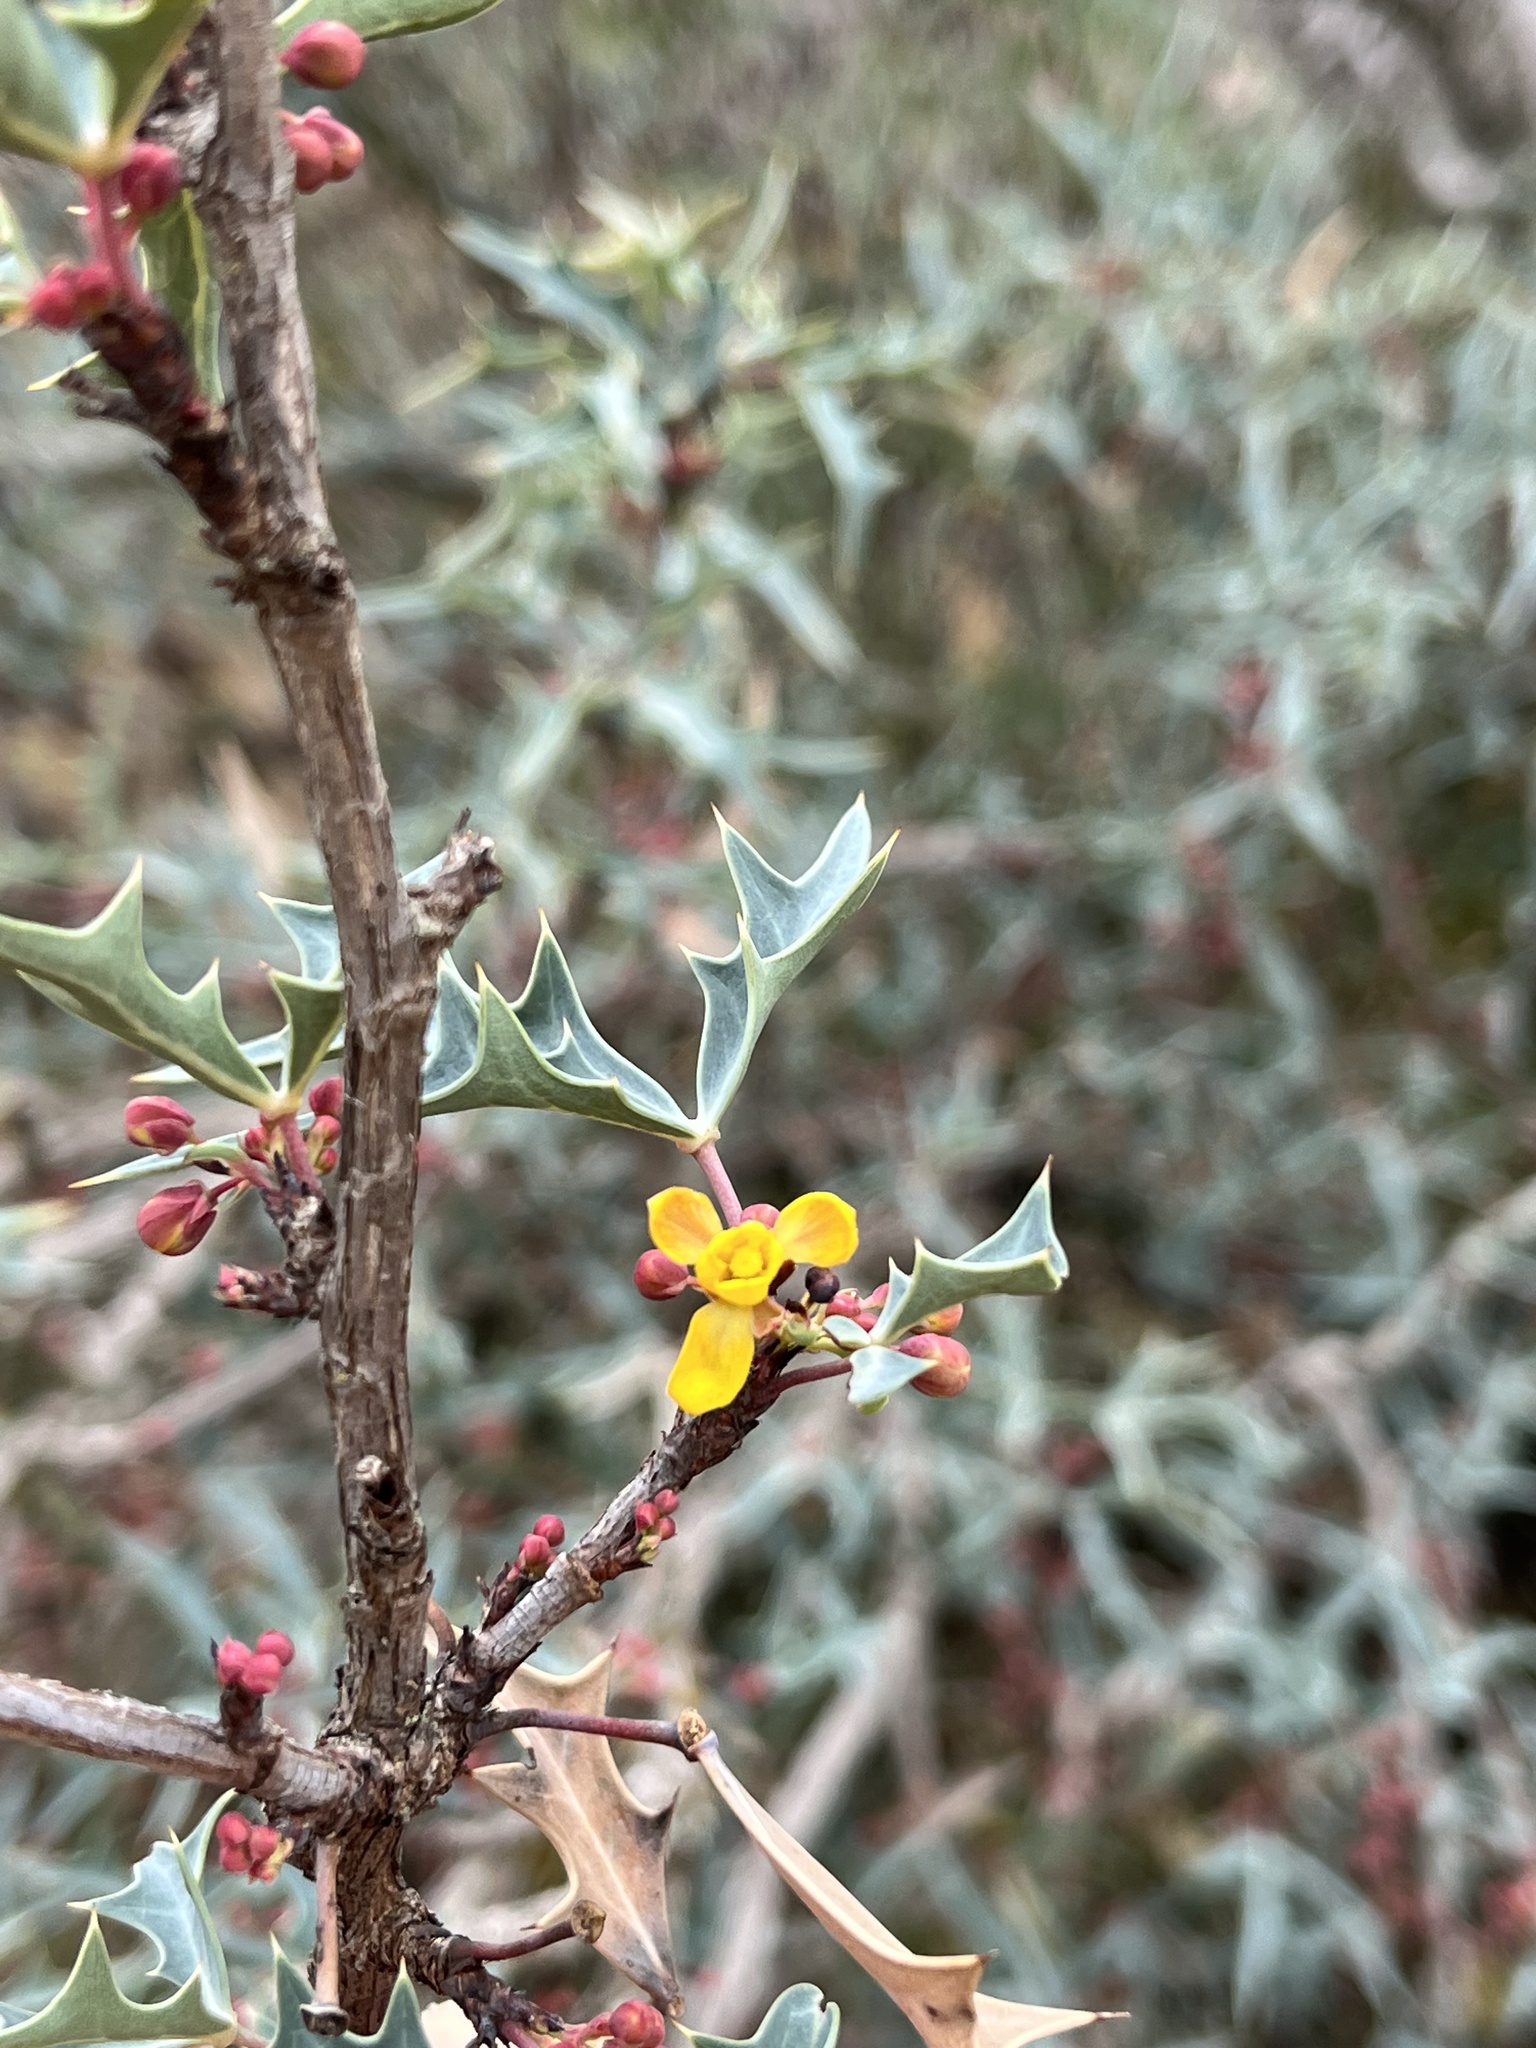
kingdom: Plantae
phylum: Tracheophyta
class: Magnoliopsida
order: Ranunculales
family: Berberidaceae
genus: Alloberberis
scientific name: Alloberberis trifoliolata
